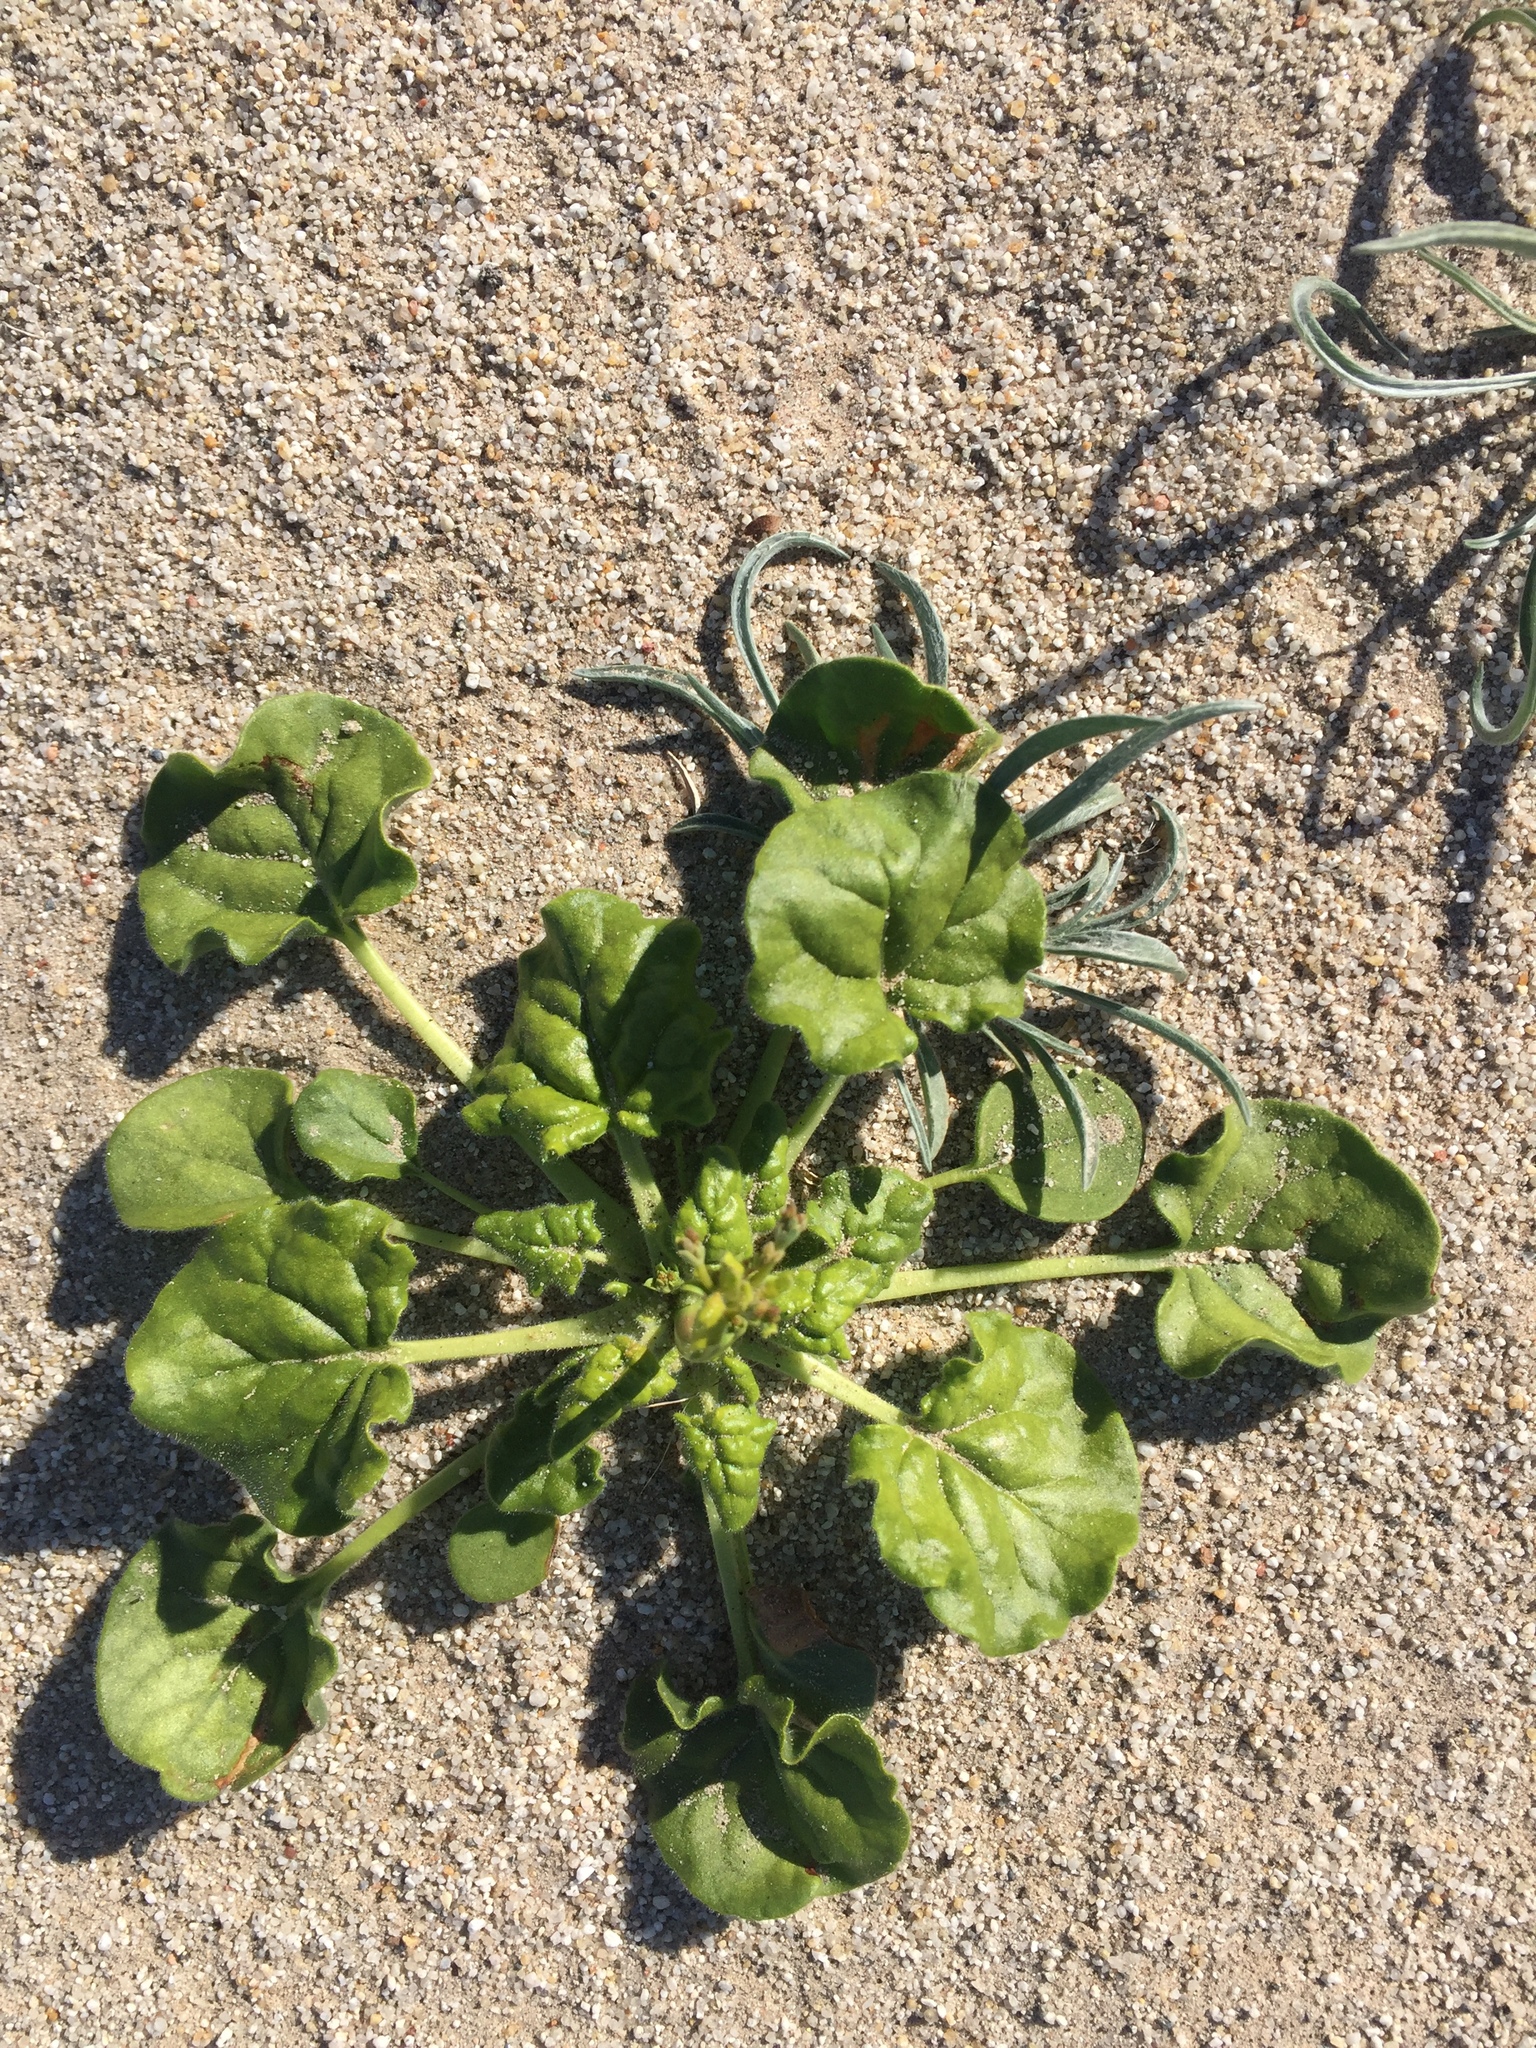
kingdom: Plantae
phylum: Tracheophyta
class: Magnoliopsida
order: Caryophyllales
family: Polygonaceae
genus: Eriogonum
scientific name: Eriogonum trichopes
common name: Little desert trumpet
